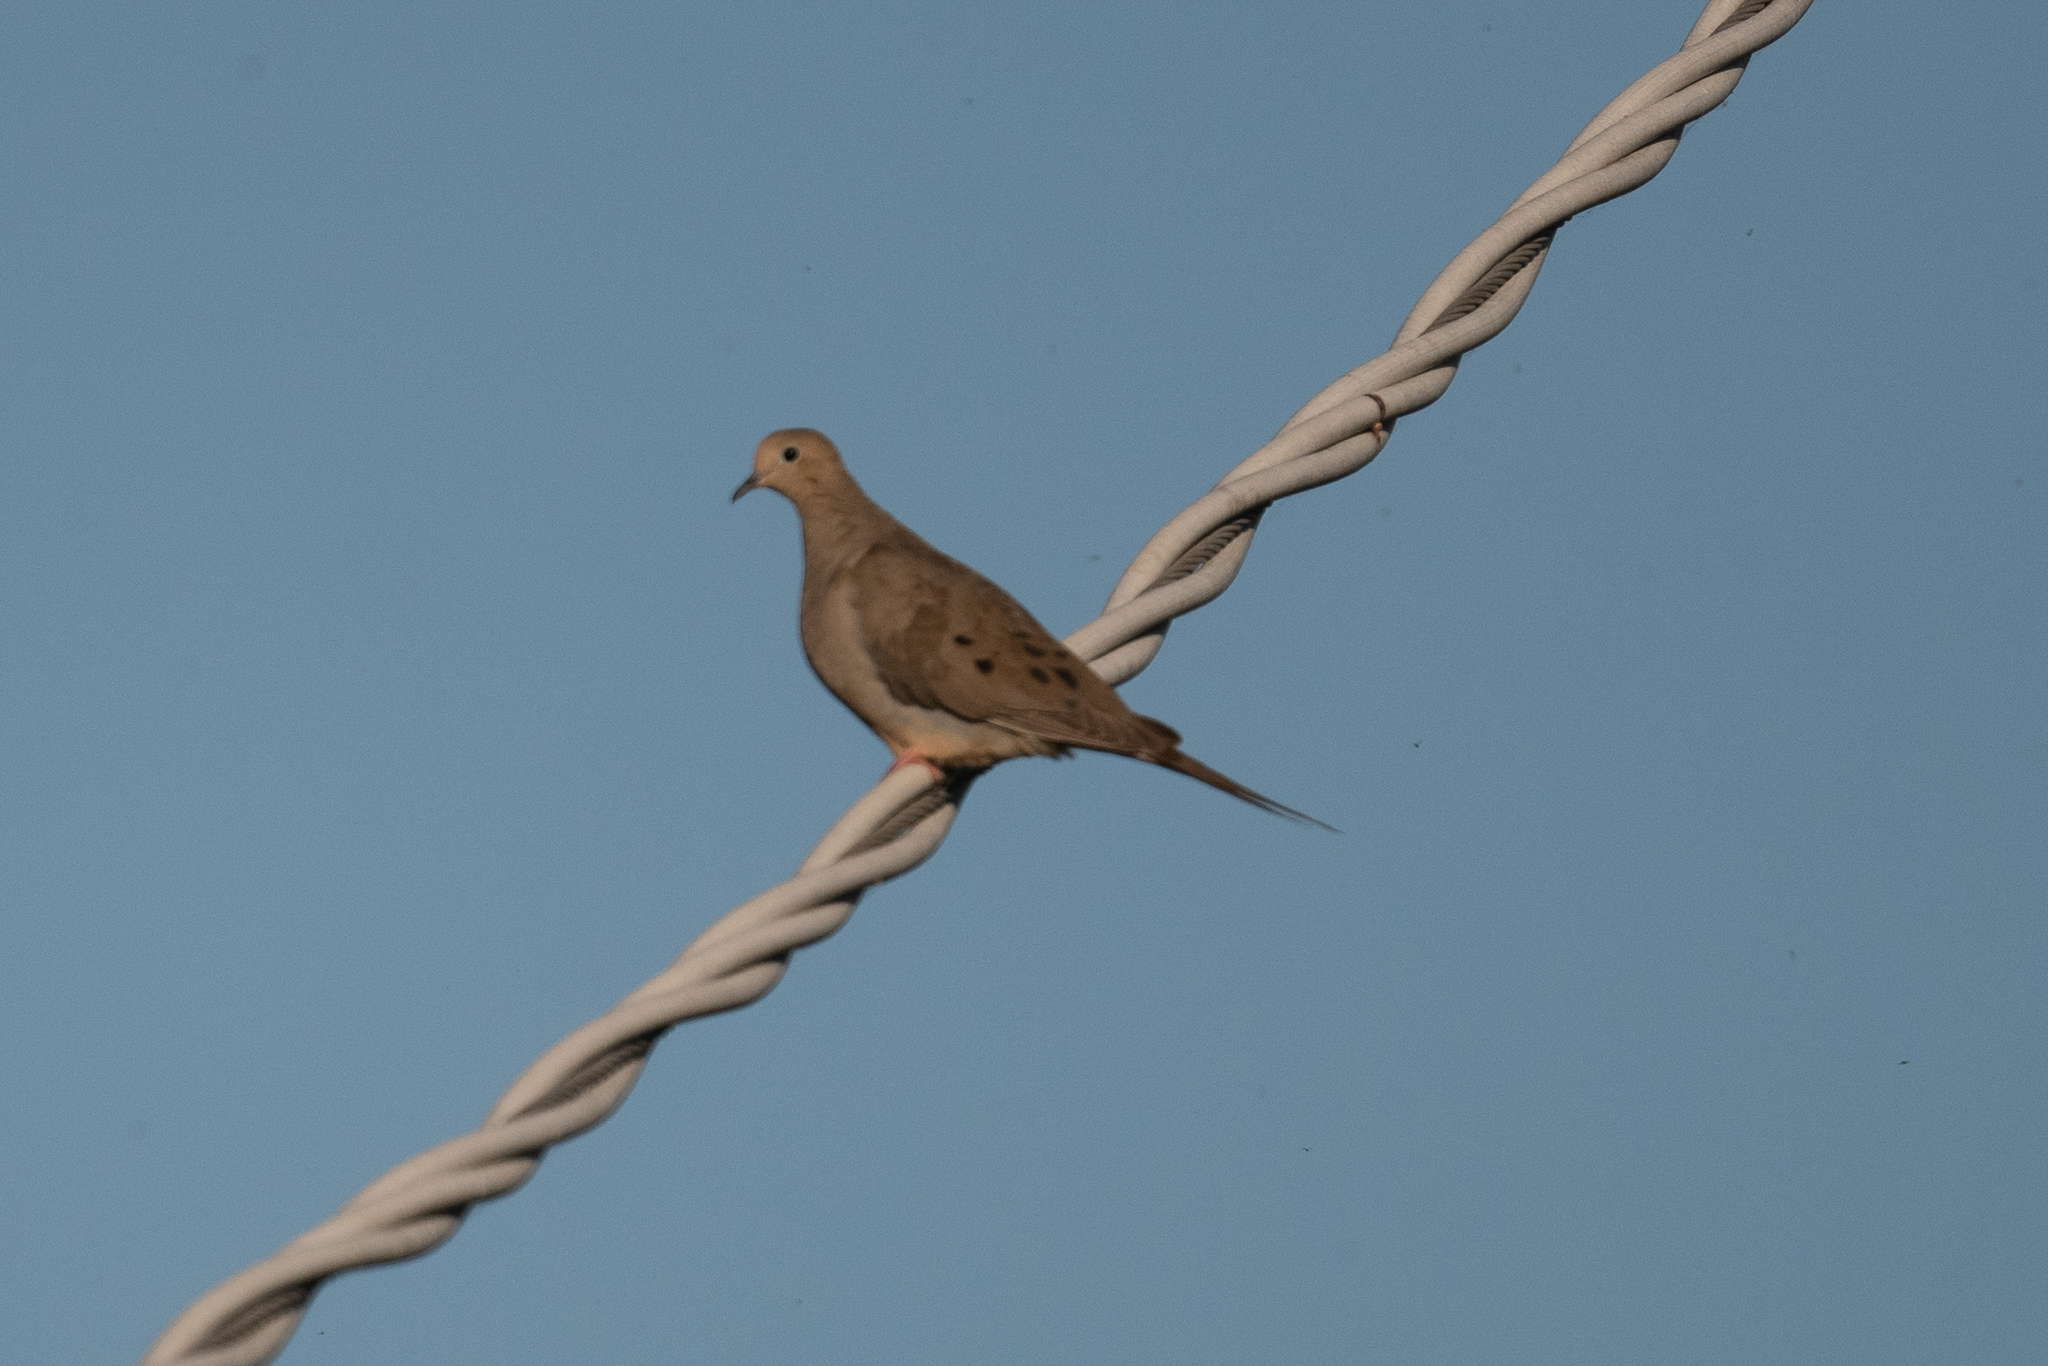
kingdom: Animalia
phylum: Chordata
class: Aves
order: Columbiformes
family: Columbidae
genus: Zenaida
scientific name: Zenaida macroura
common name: Mourning dove
